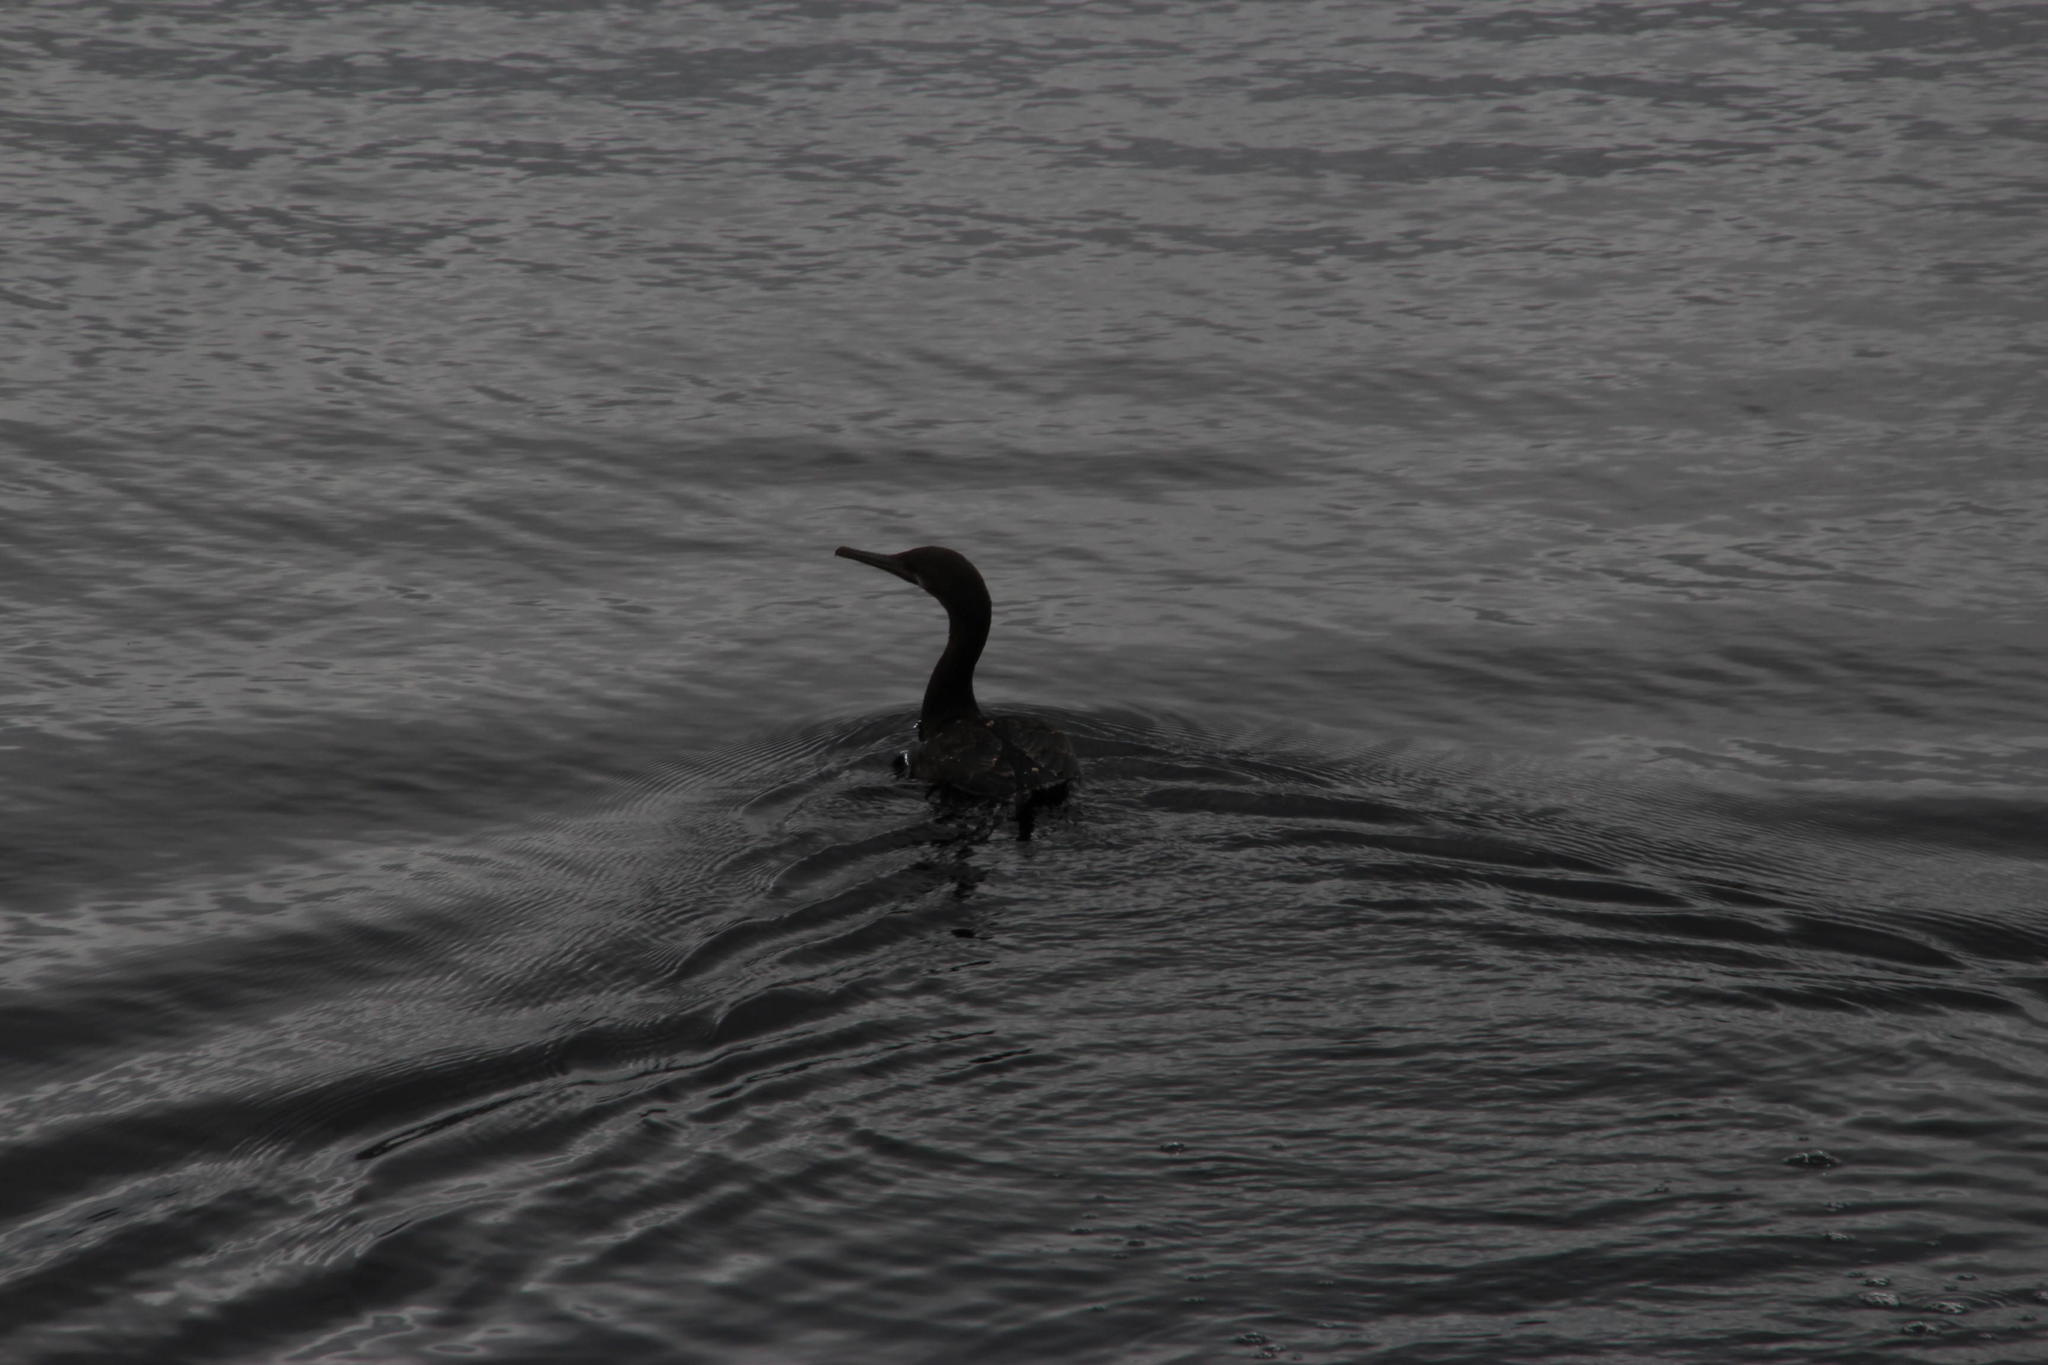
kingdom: Animalia
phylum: Chordata
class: Aves
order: Suliformes
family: Phalacrocoracidae
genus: Phalacrocorax
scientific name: Phalacrocorax capensis
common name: Cape cormorant
